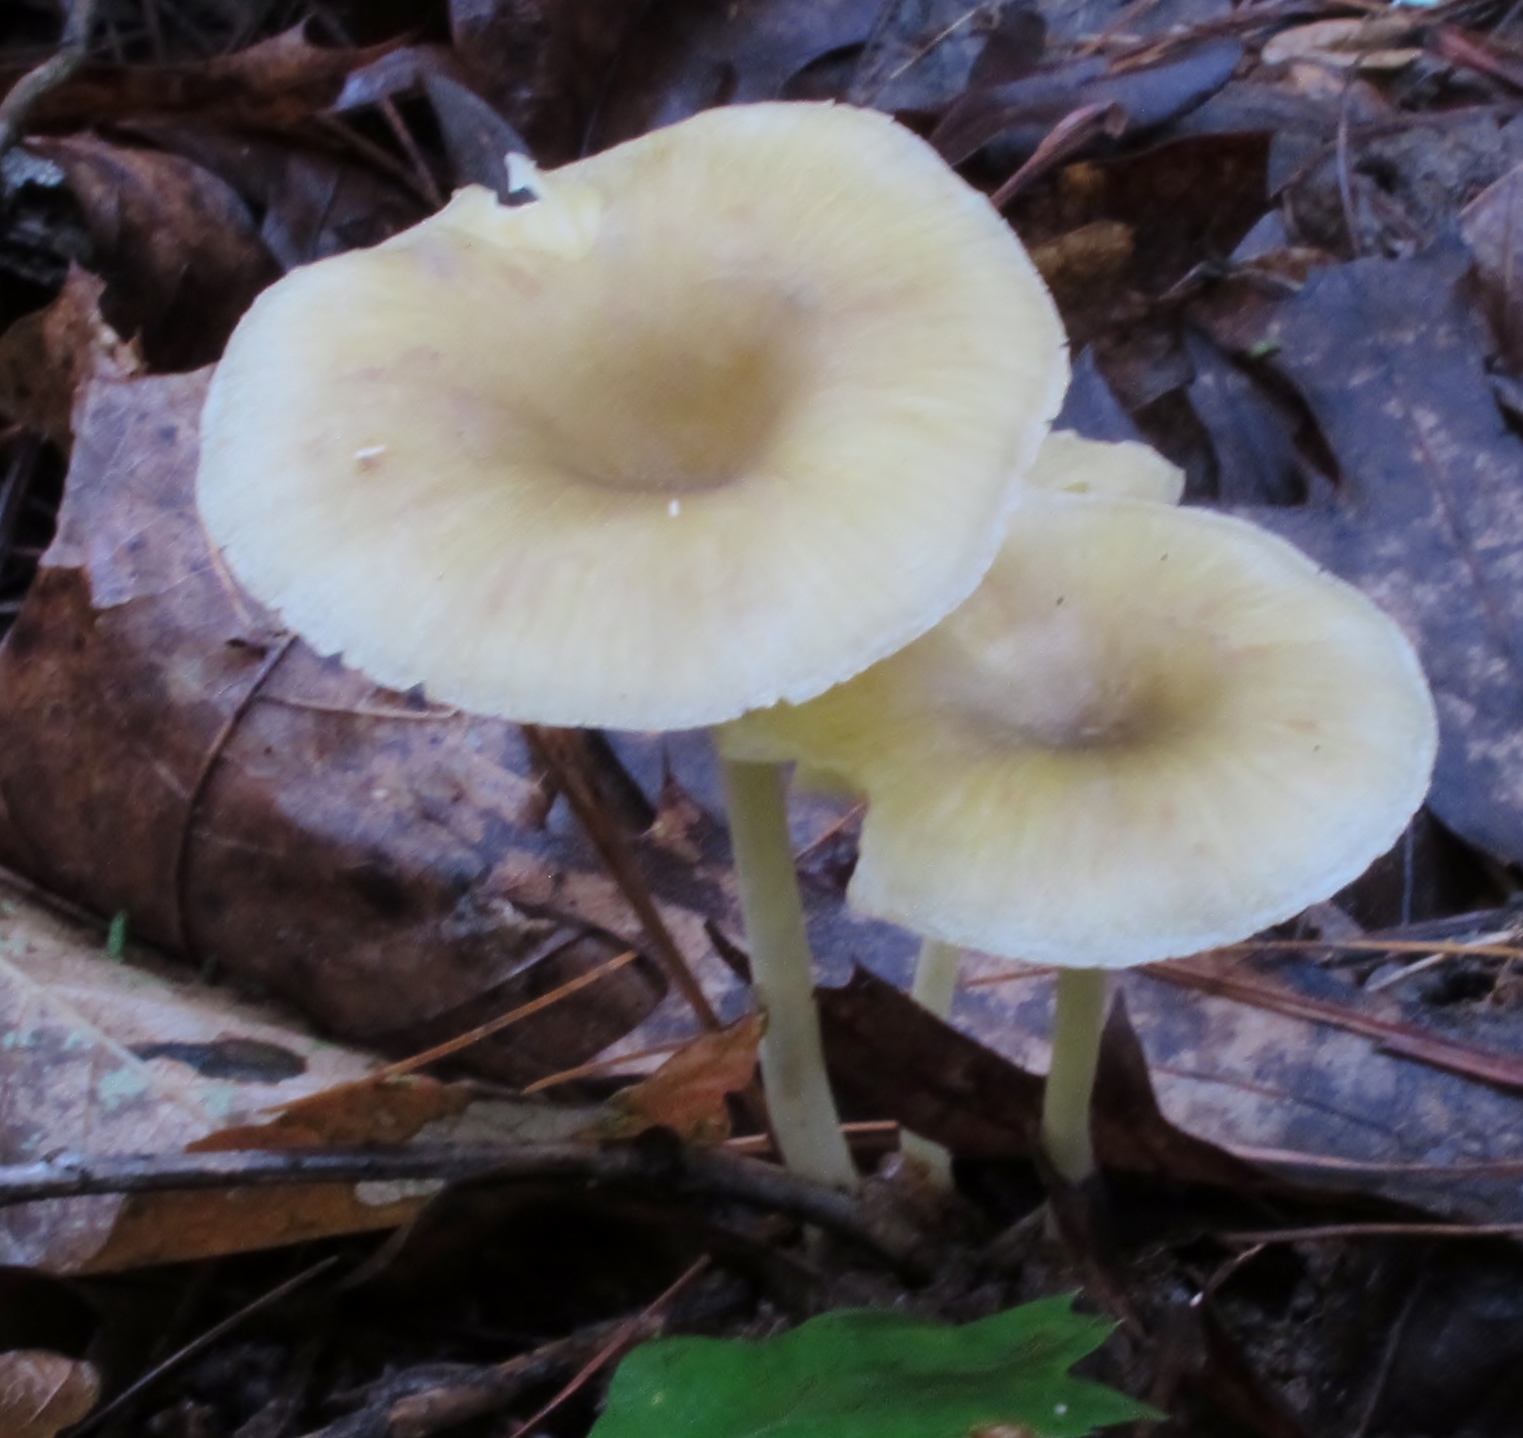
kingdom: Fungi
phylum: Basidiomycota
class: Agaricomycetes
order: Agaricales
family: Marasmiaceae
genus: Gerronema
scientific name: Gerronema strombodes
